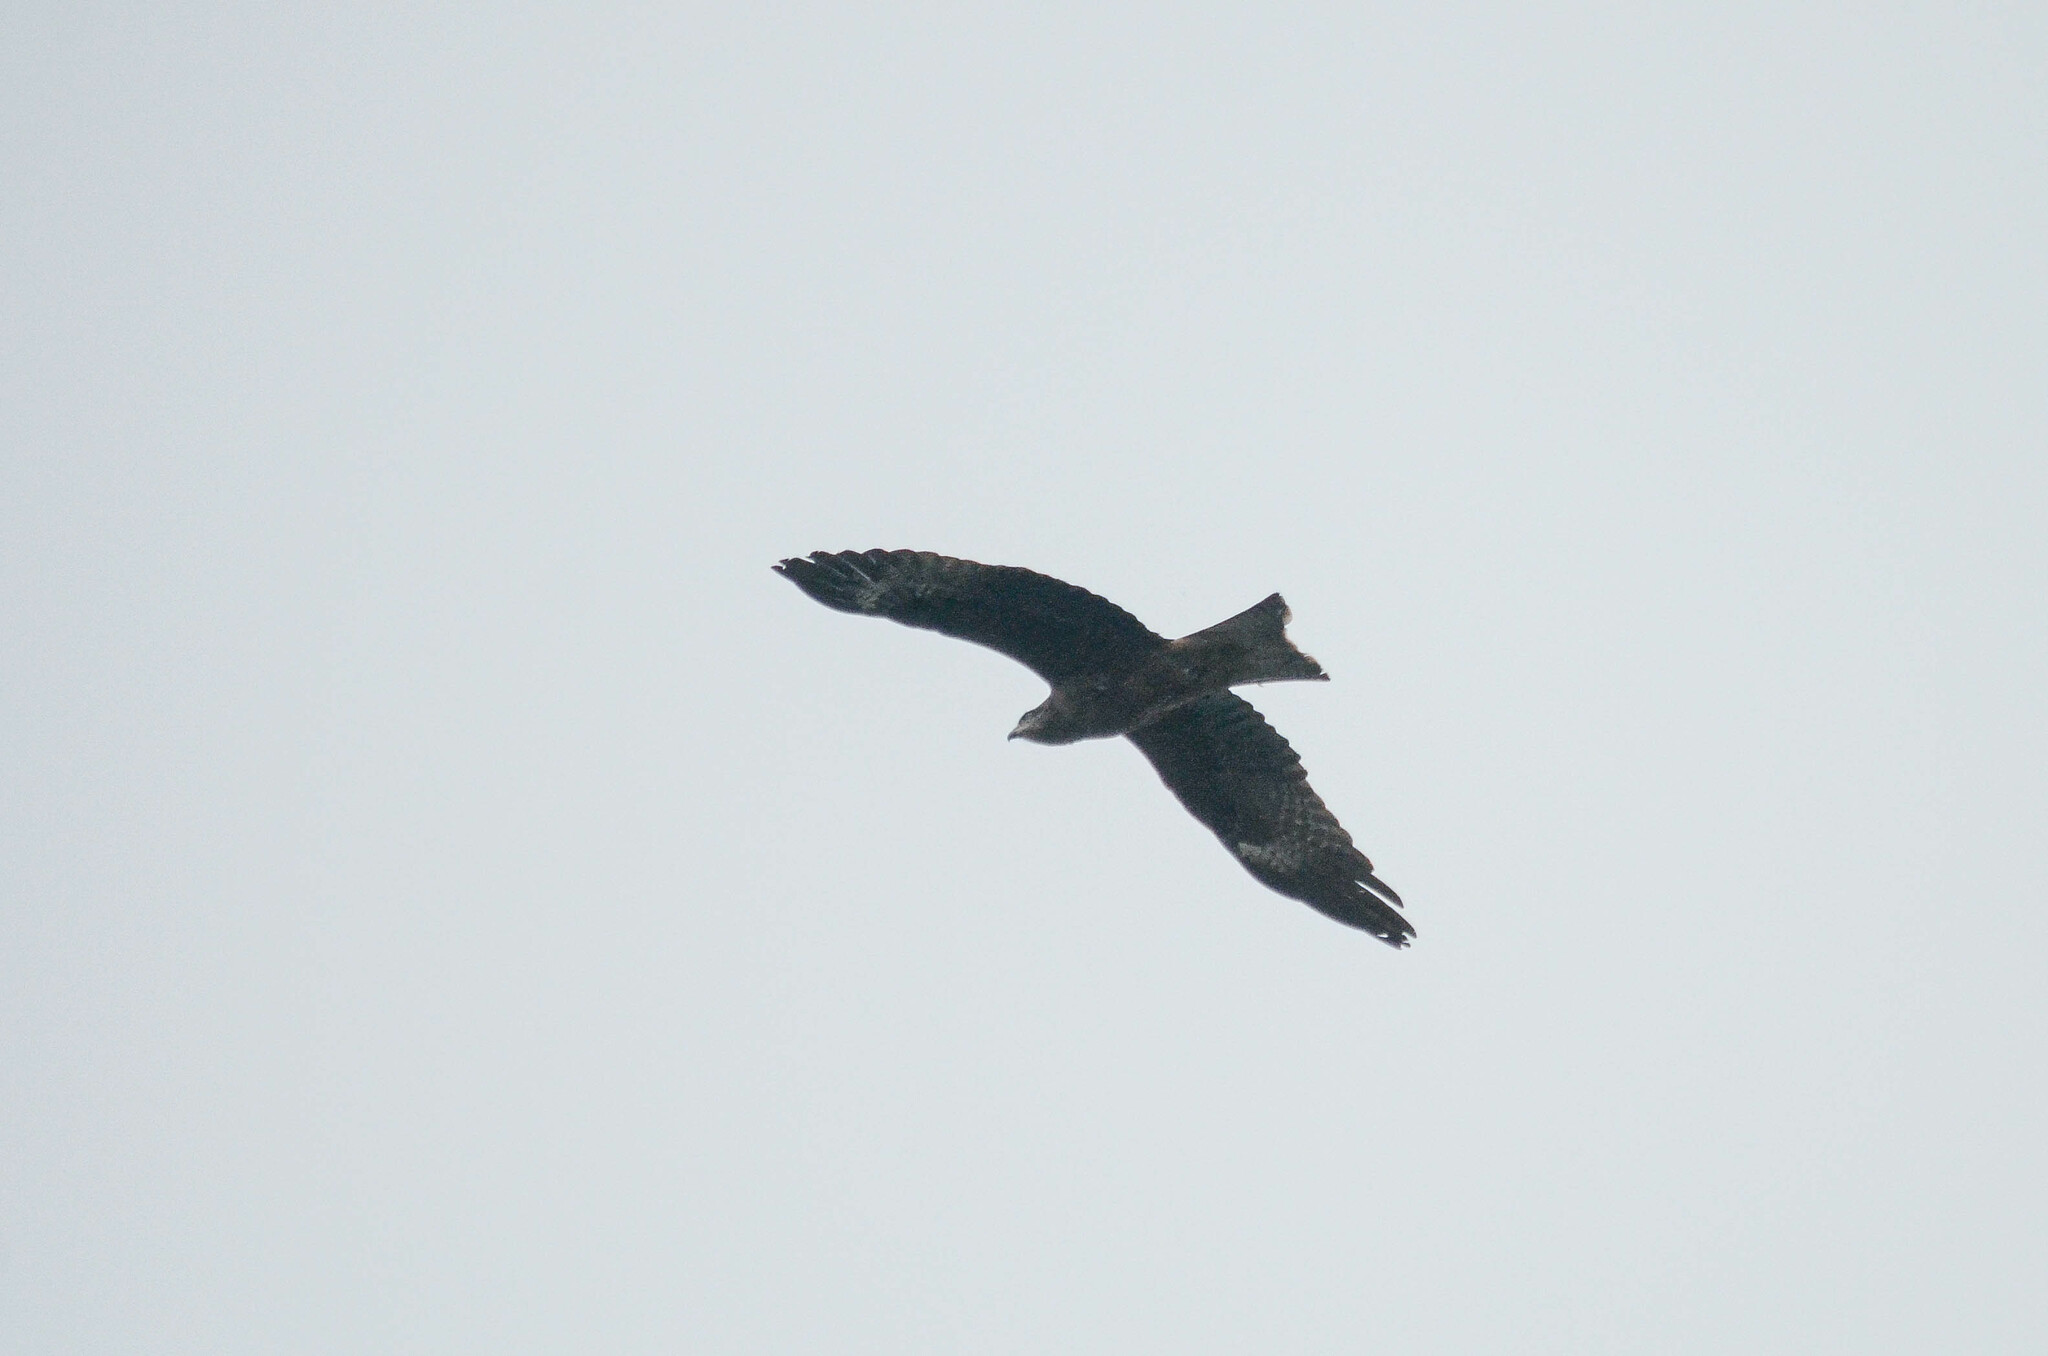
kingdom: Animalia
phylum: Chordata
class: Aves
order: Accipitriformes
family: Accipitridae
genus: Milvus
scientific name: Milvus migrans
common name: Black kite
